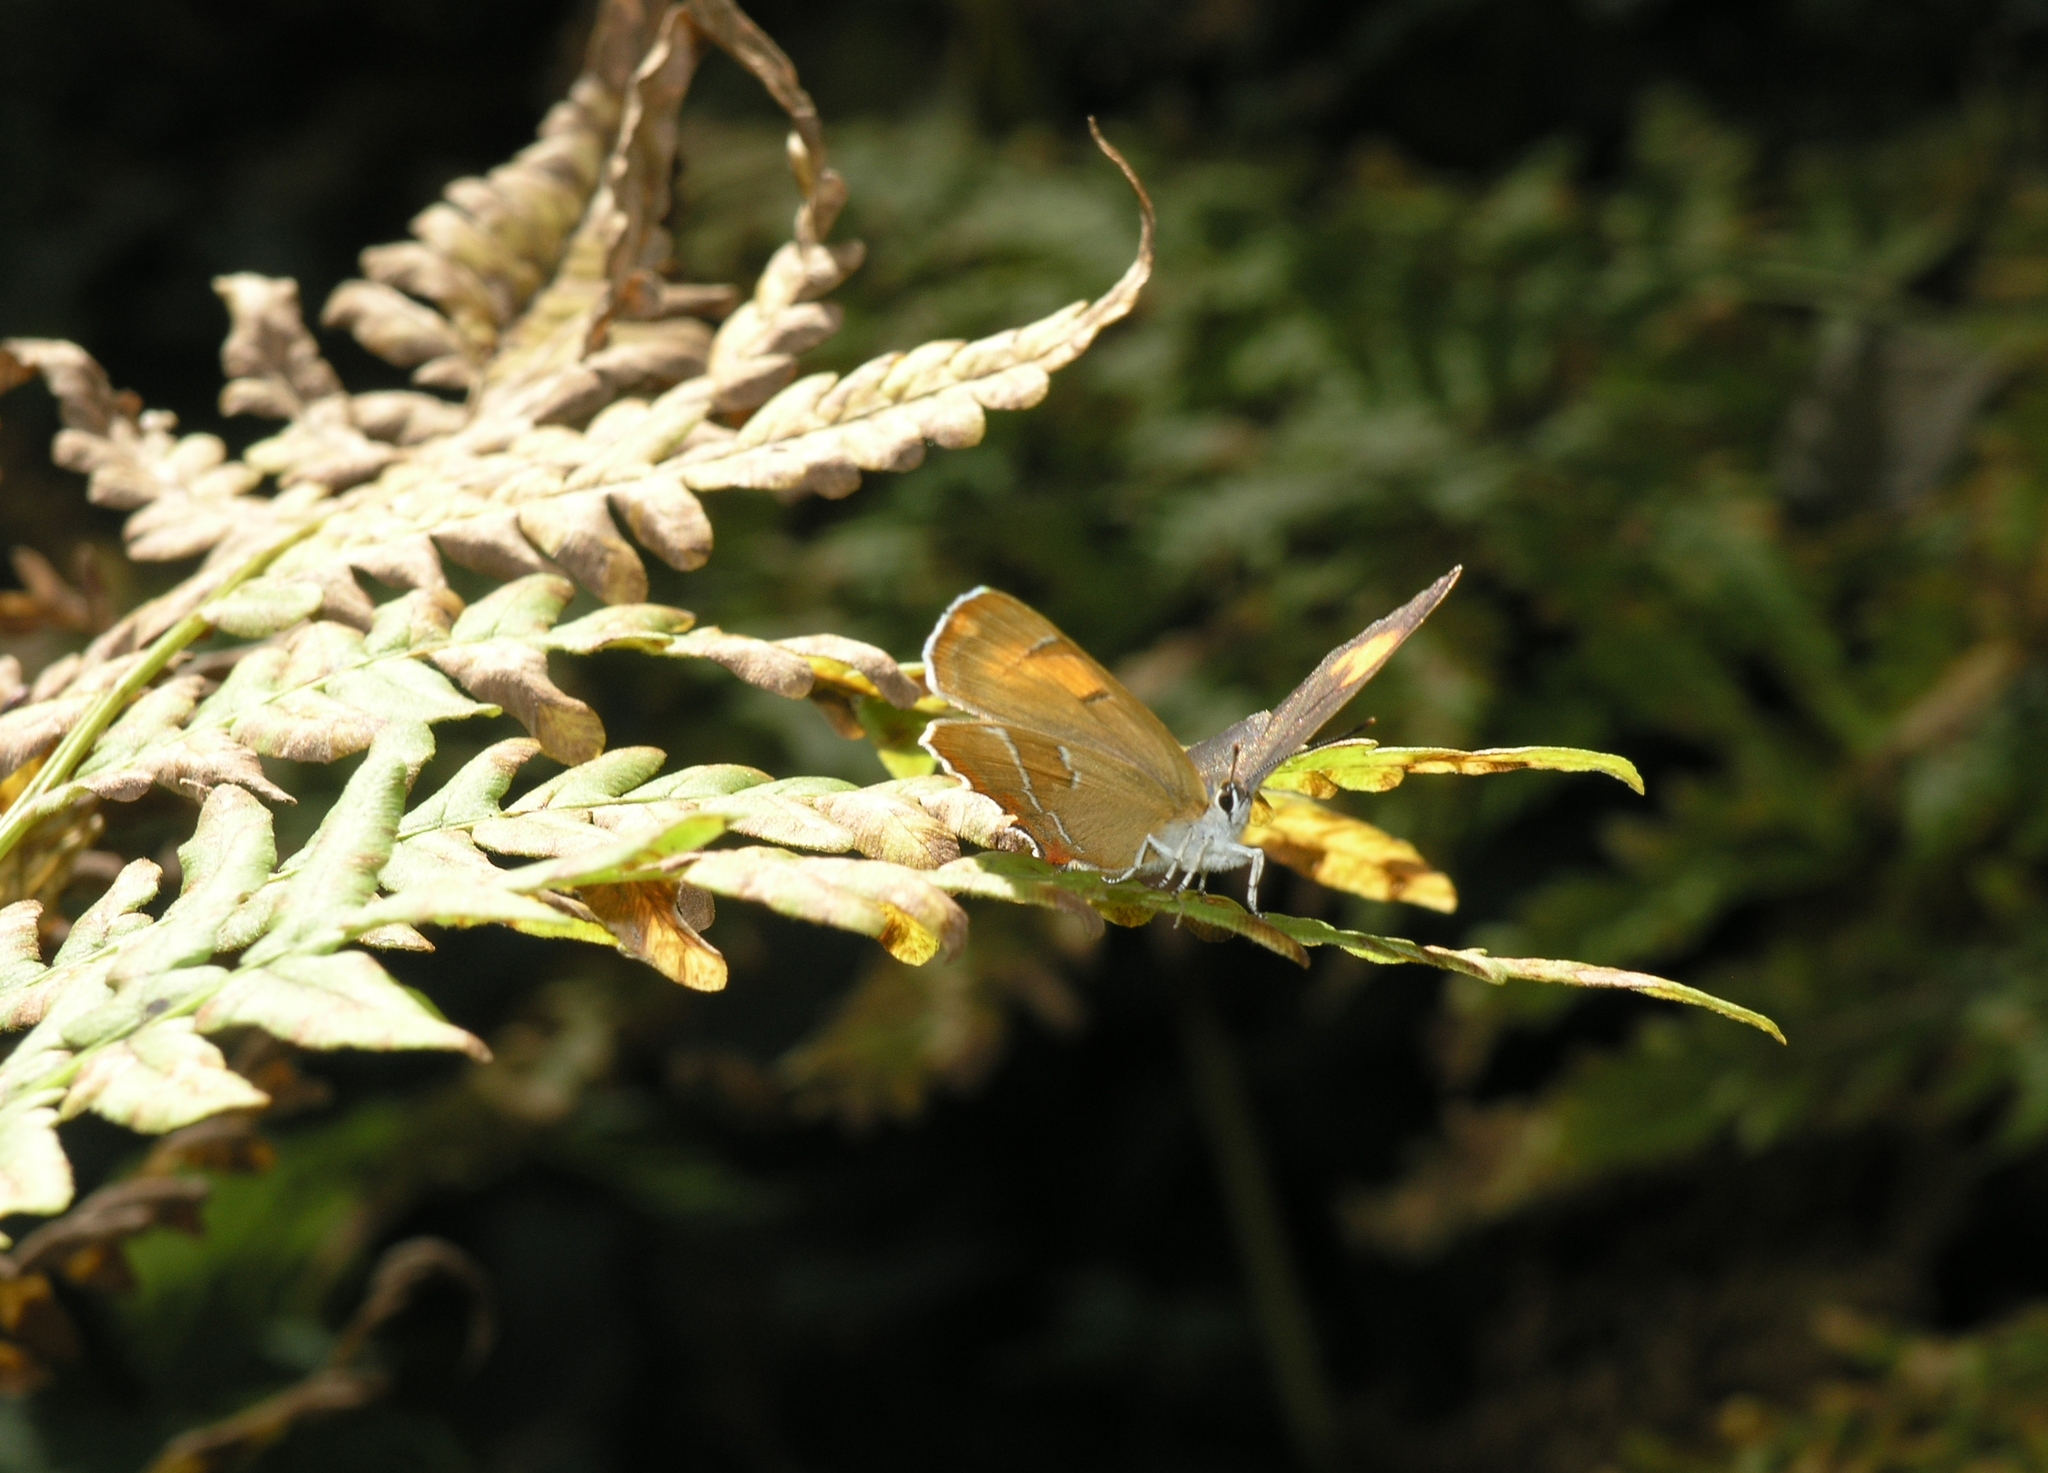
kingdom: Plantae
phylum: Tracheophyta
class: Polypodiopsida
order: Polypodiales
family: Dennstaedtiaceae
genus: Pteridium
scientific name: Pteridium aquilinum
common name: Bracken
